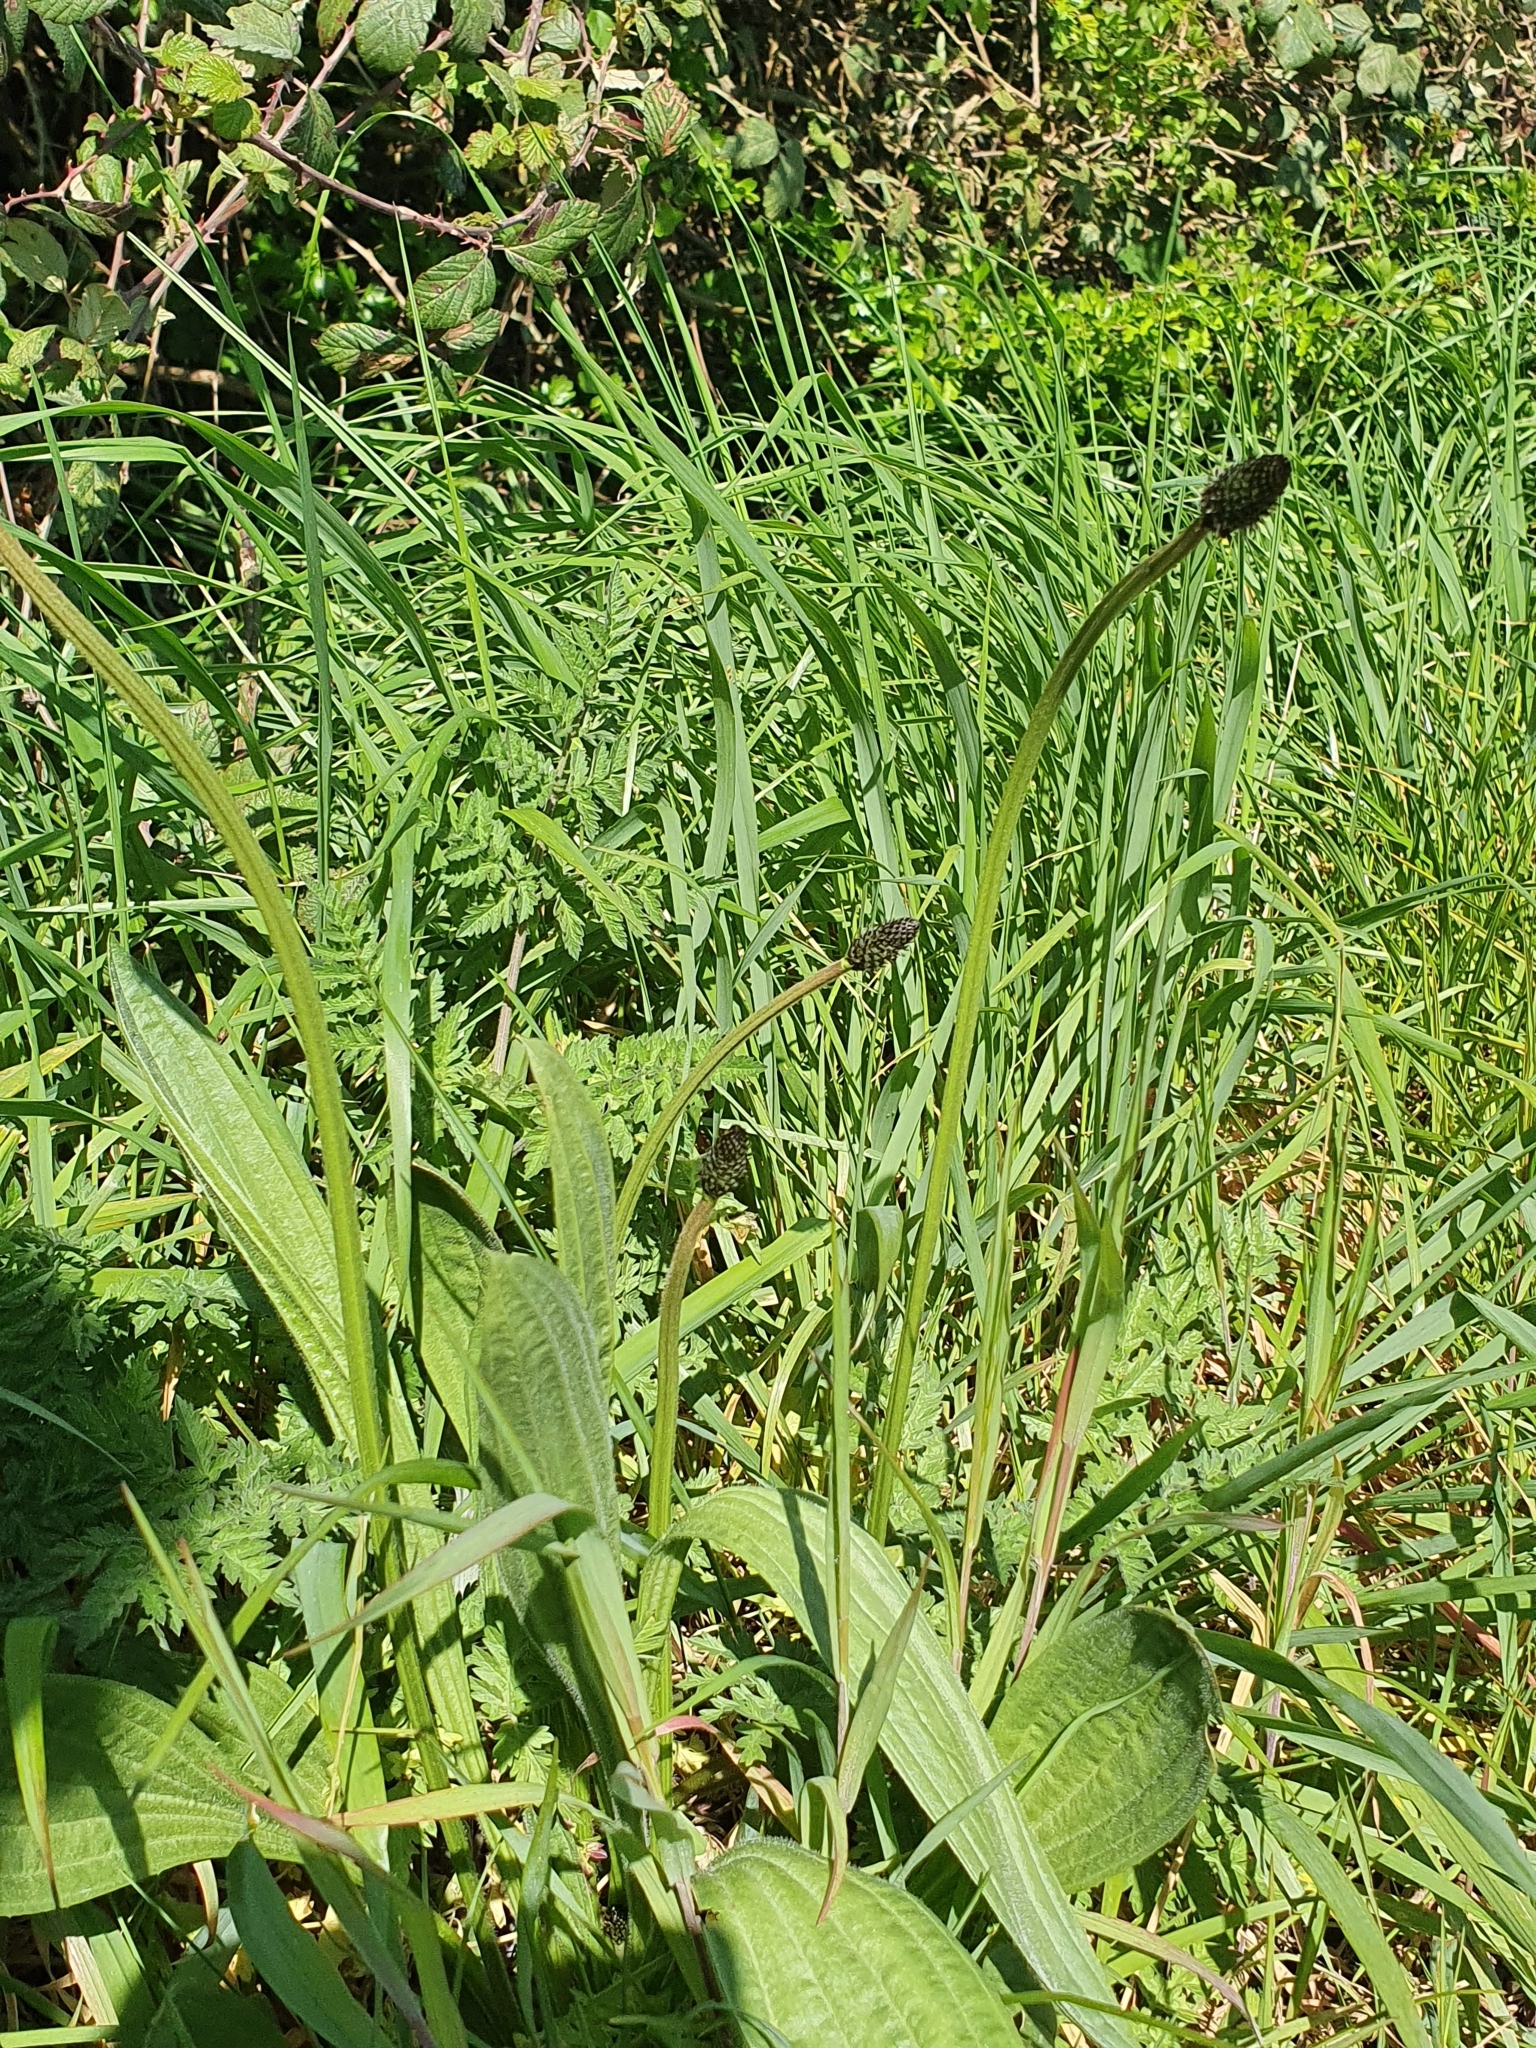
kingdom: Plantae
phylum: Tracheophyta
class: Magnoliopsida
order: Lamiales
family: Plantaginaceae
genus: Plantago
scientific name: Plantago lanceolata
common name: Ribwort plantain
